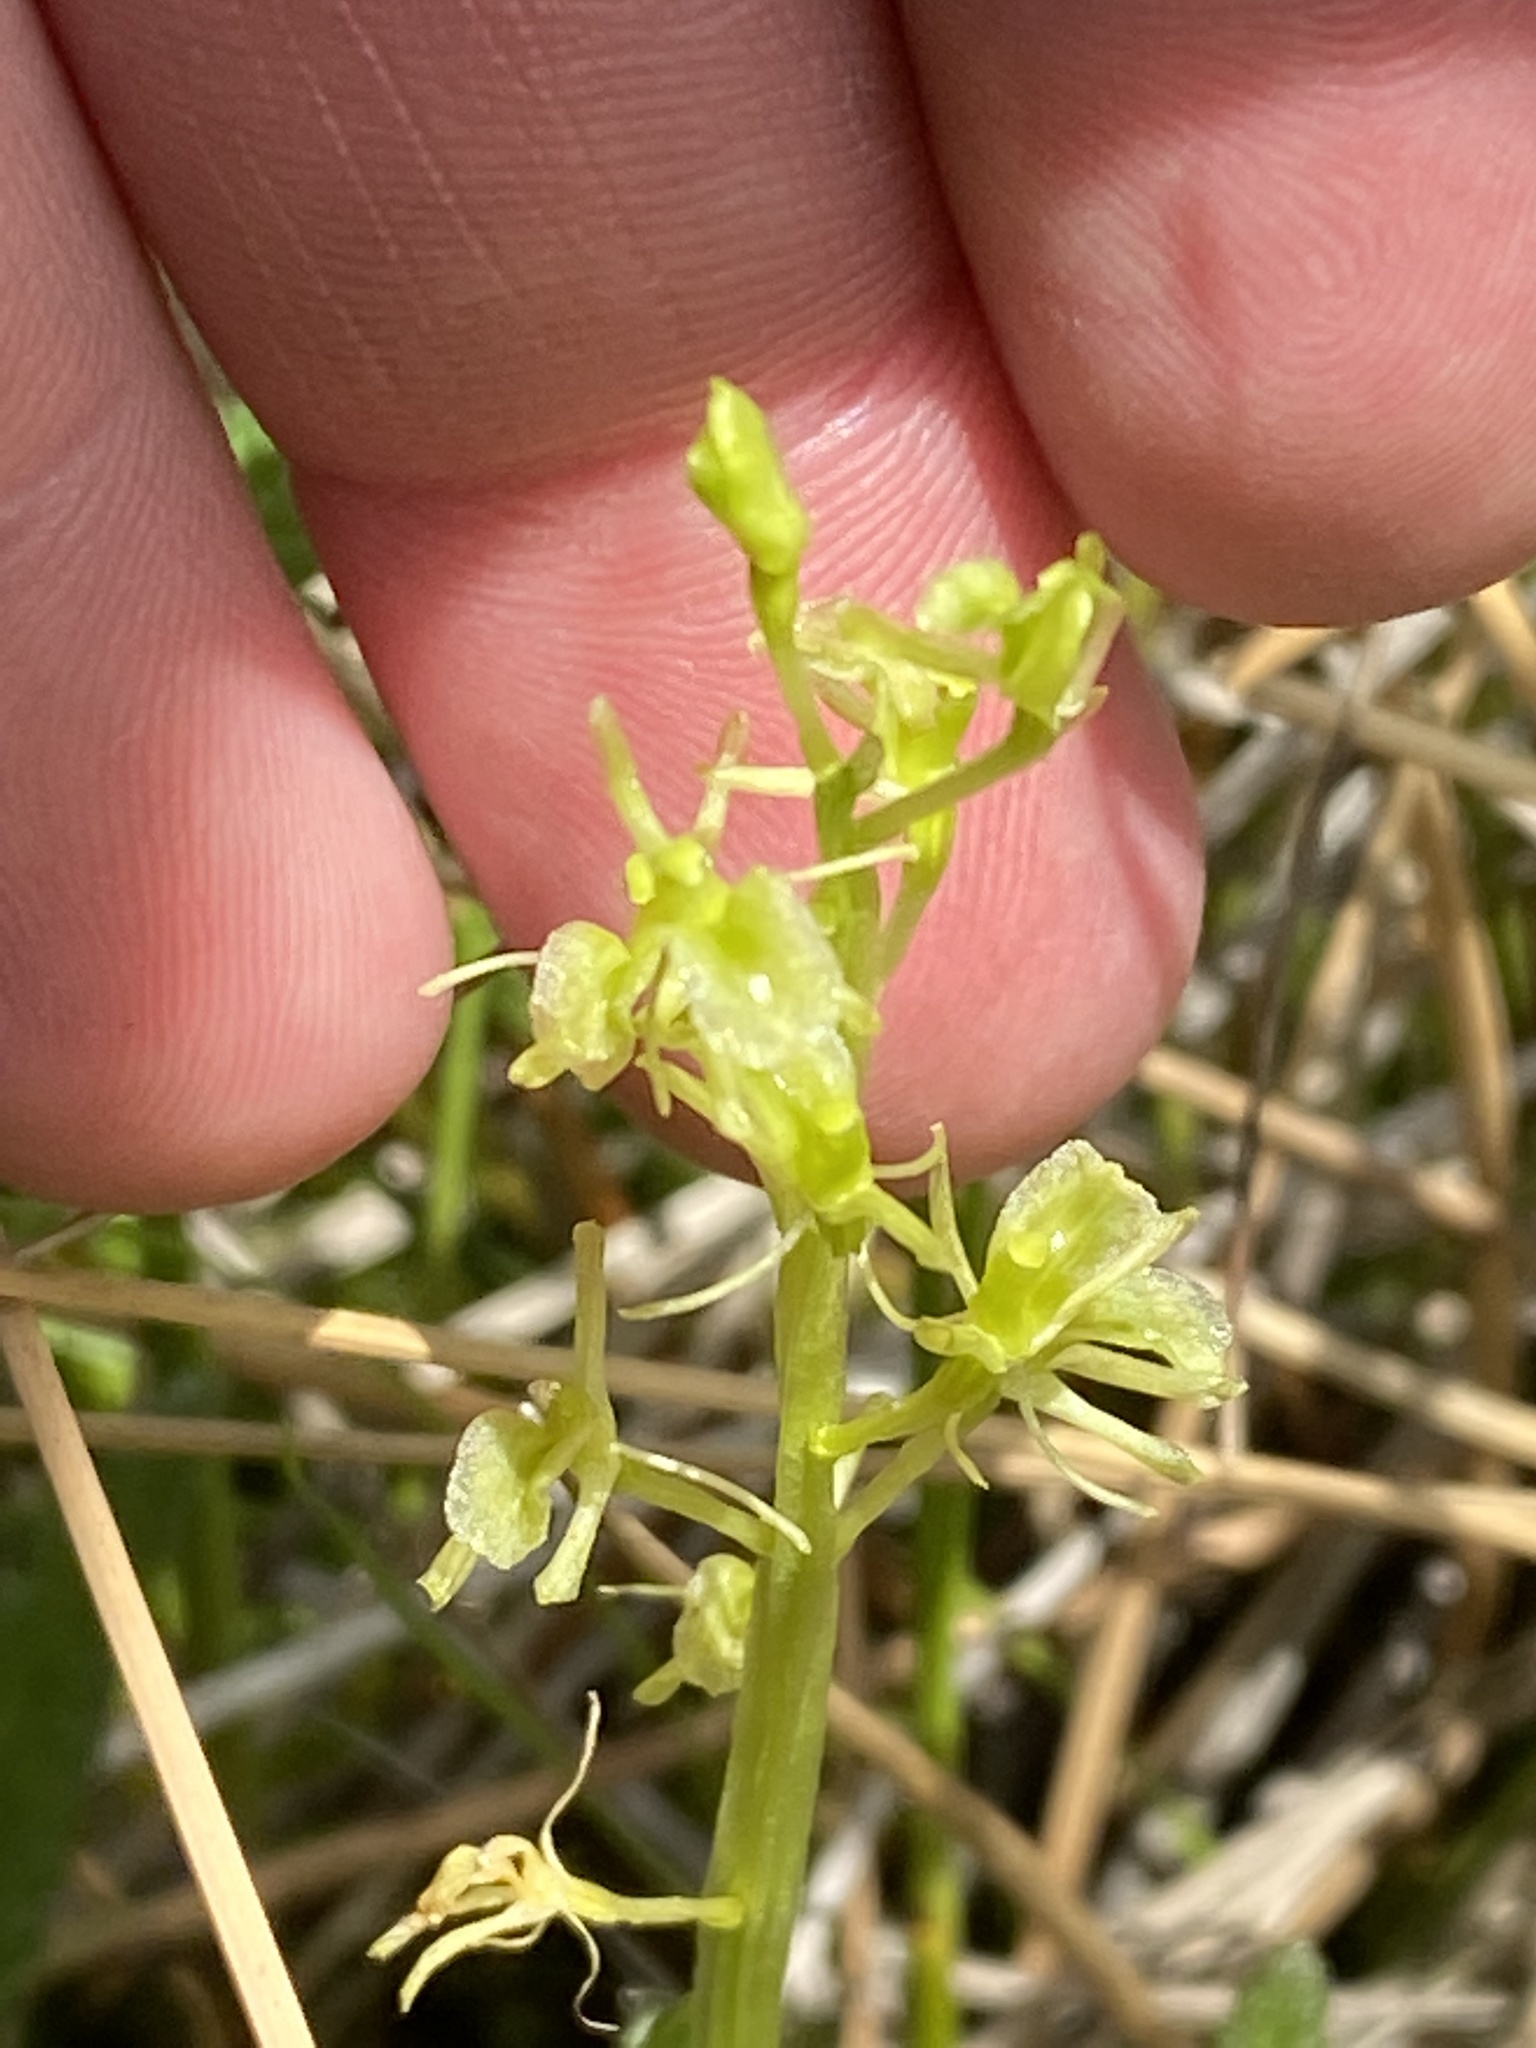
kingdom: Animalia
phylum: Arthropoda
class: Insecta
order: Coleoptera
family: Curculionidae
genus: Liparis
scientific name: Liparis loeselii
